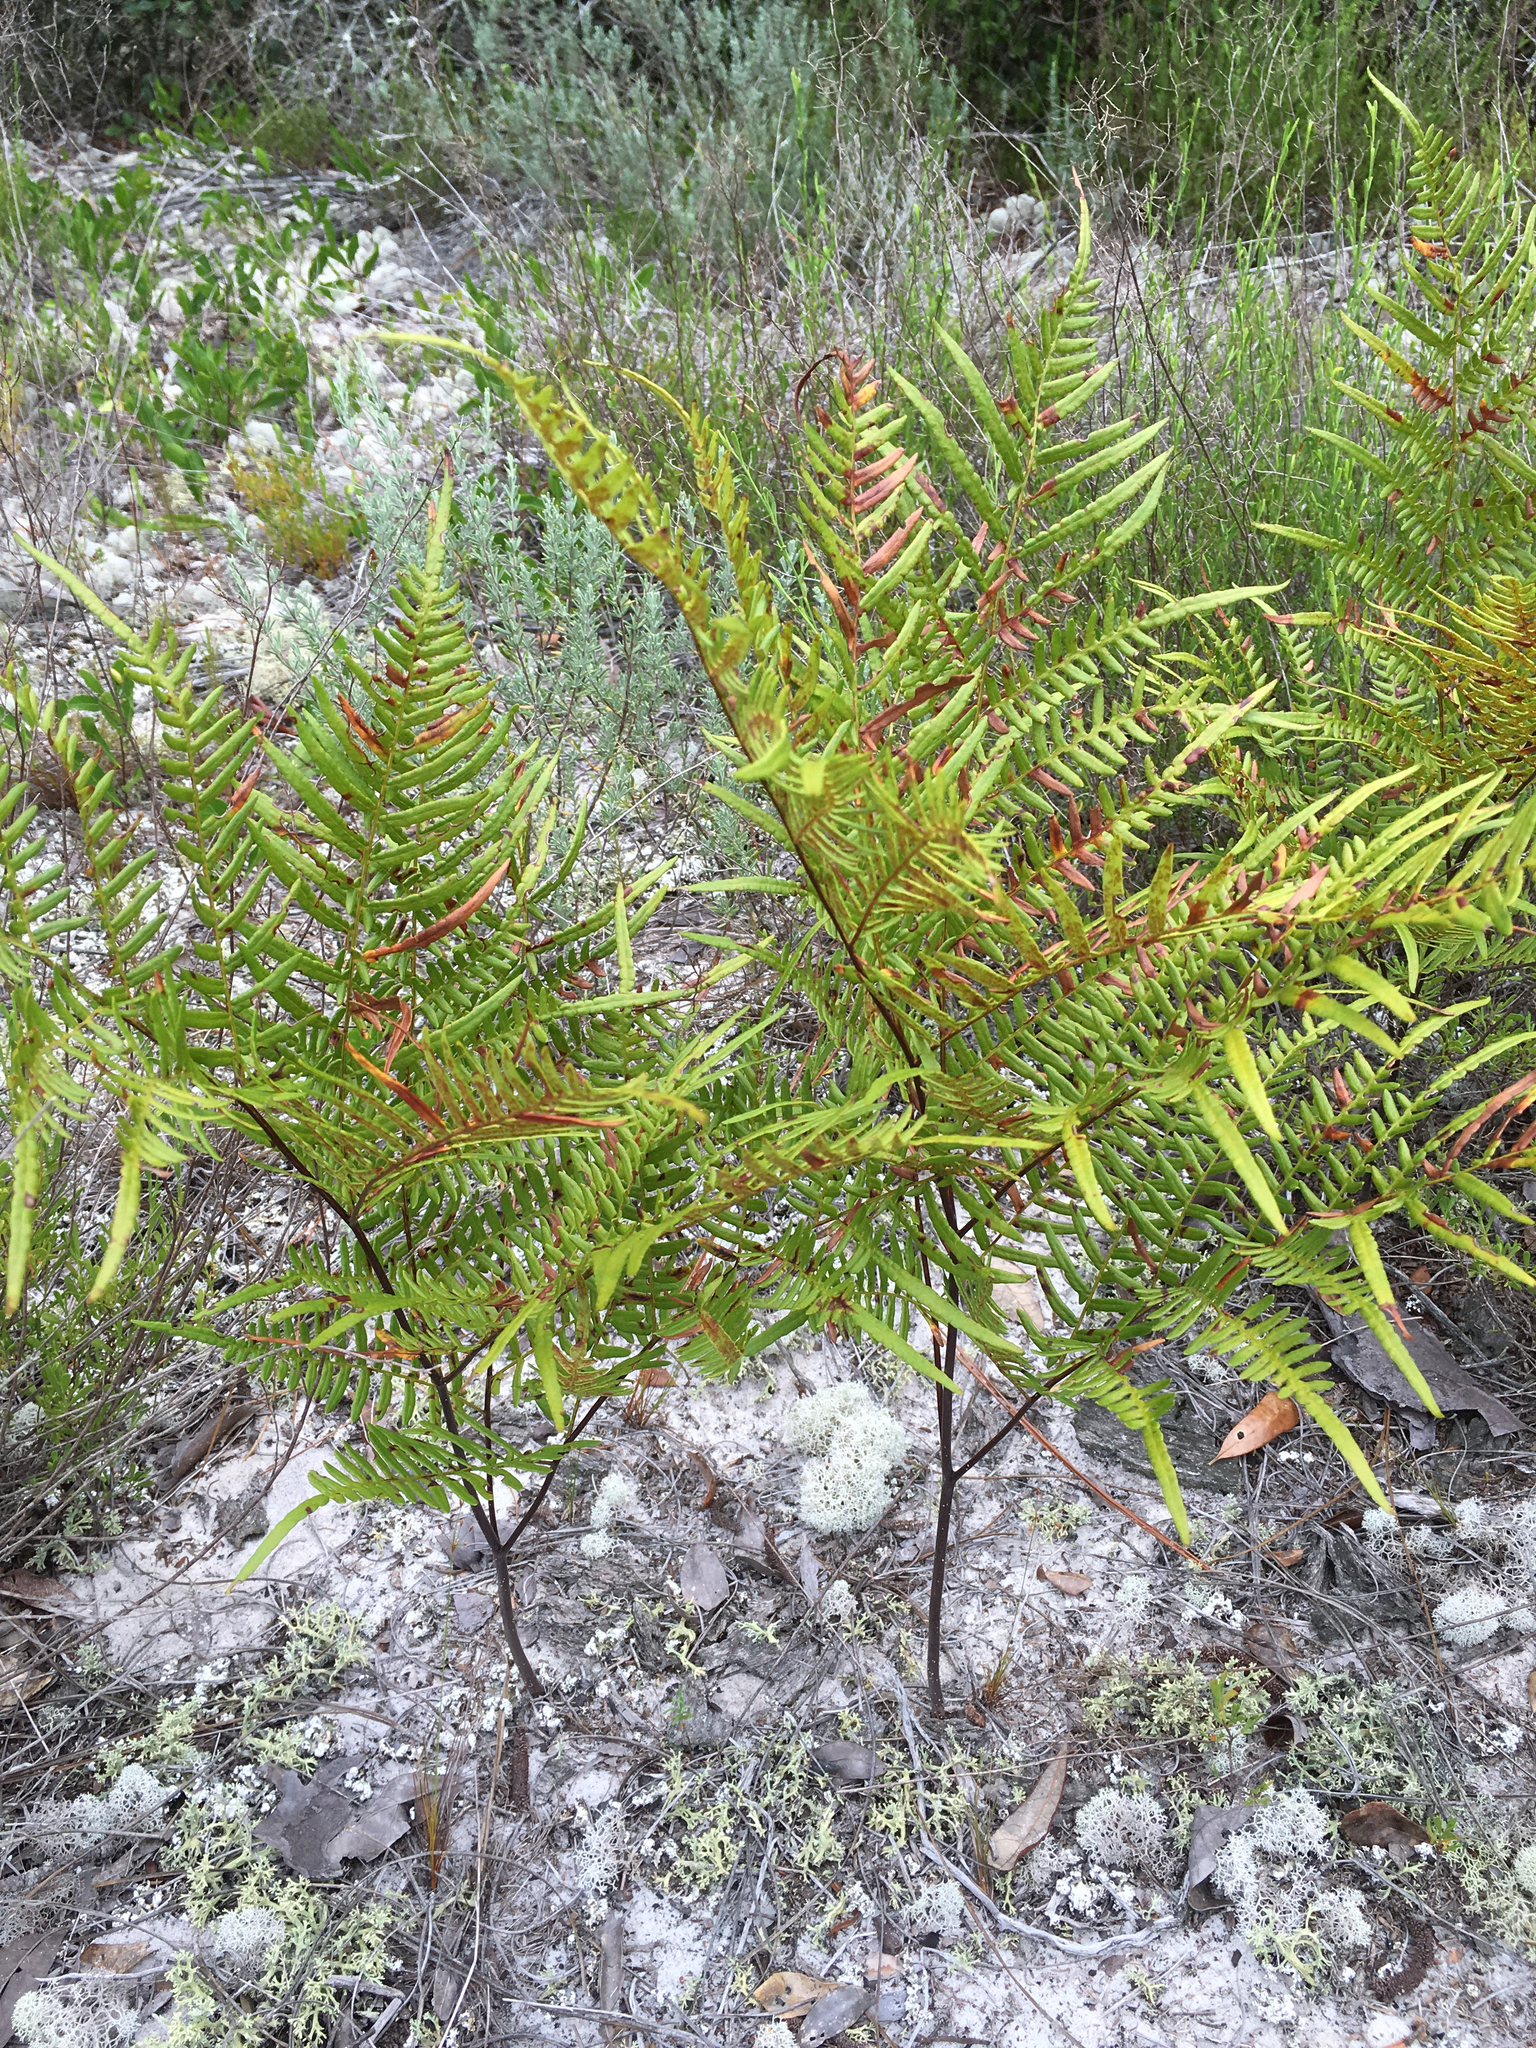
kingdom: Plantae
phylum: Tracheophyta
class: Polypodiopsida
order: Polypodiales
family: Dennstaedtiaceae
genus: Pteridium
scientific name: Pteridium
